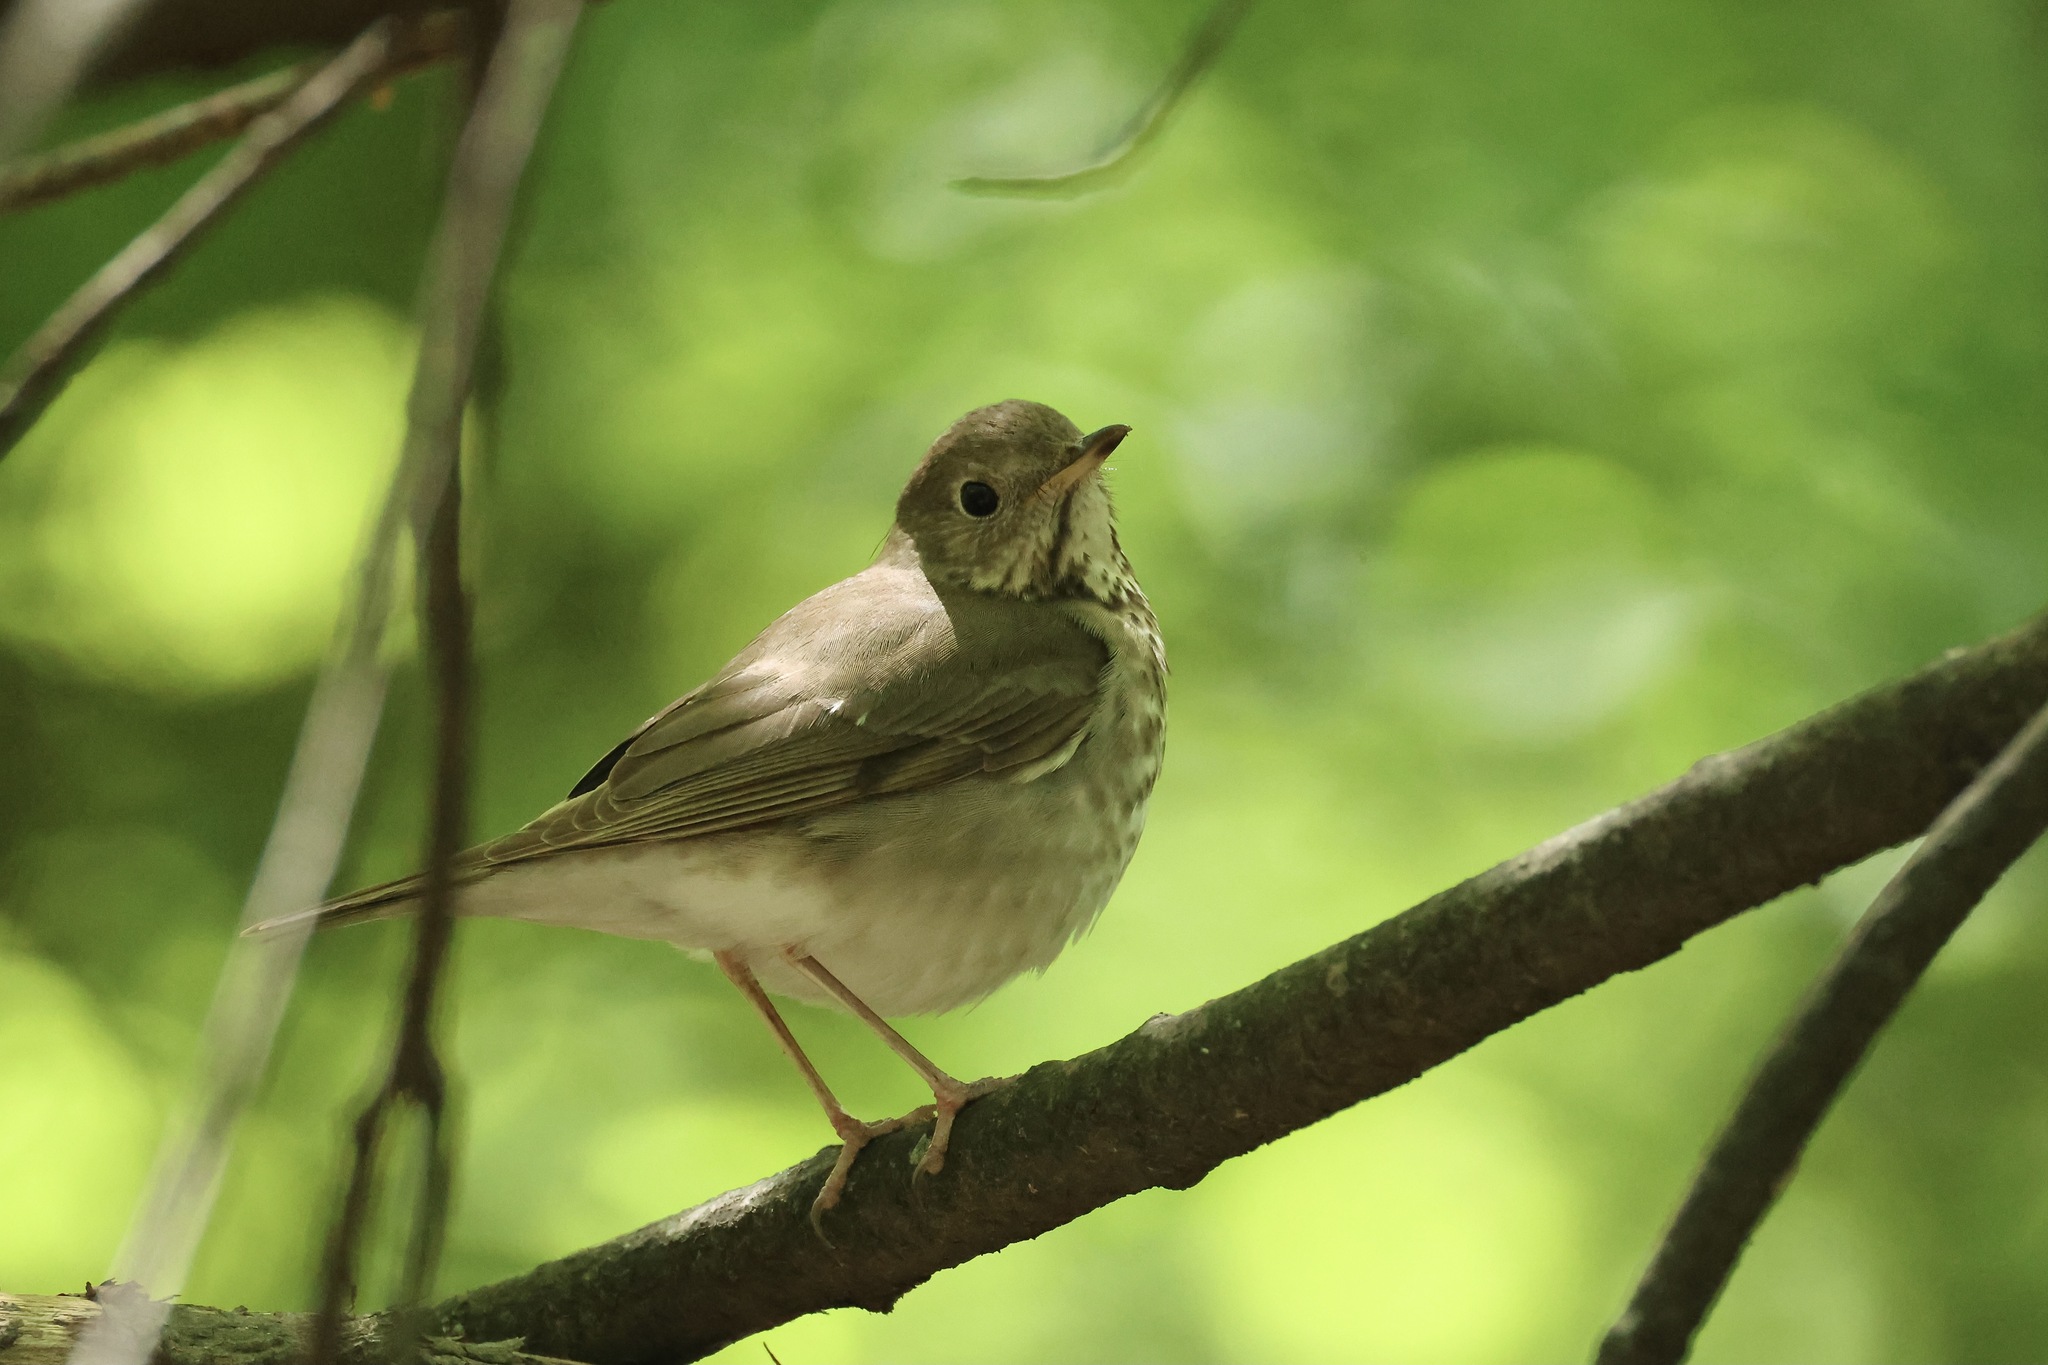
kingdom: Animalia
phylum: Chordata
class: Aves
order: Passeriformes
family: Turdidae
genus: Catharus
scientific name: Catharus minimus
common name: Grey-cheeked thrush
